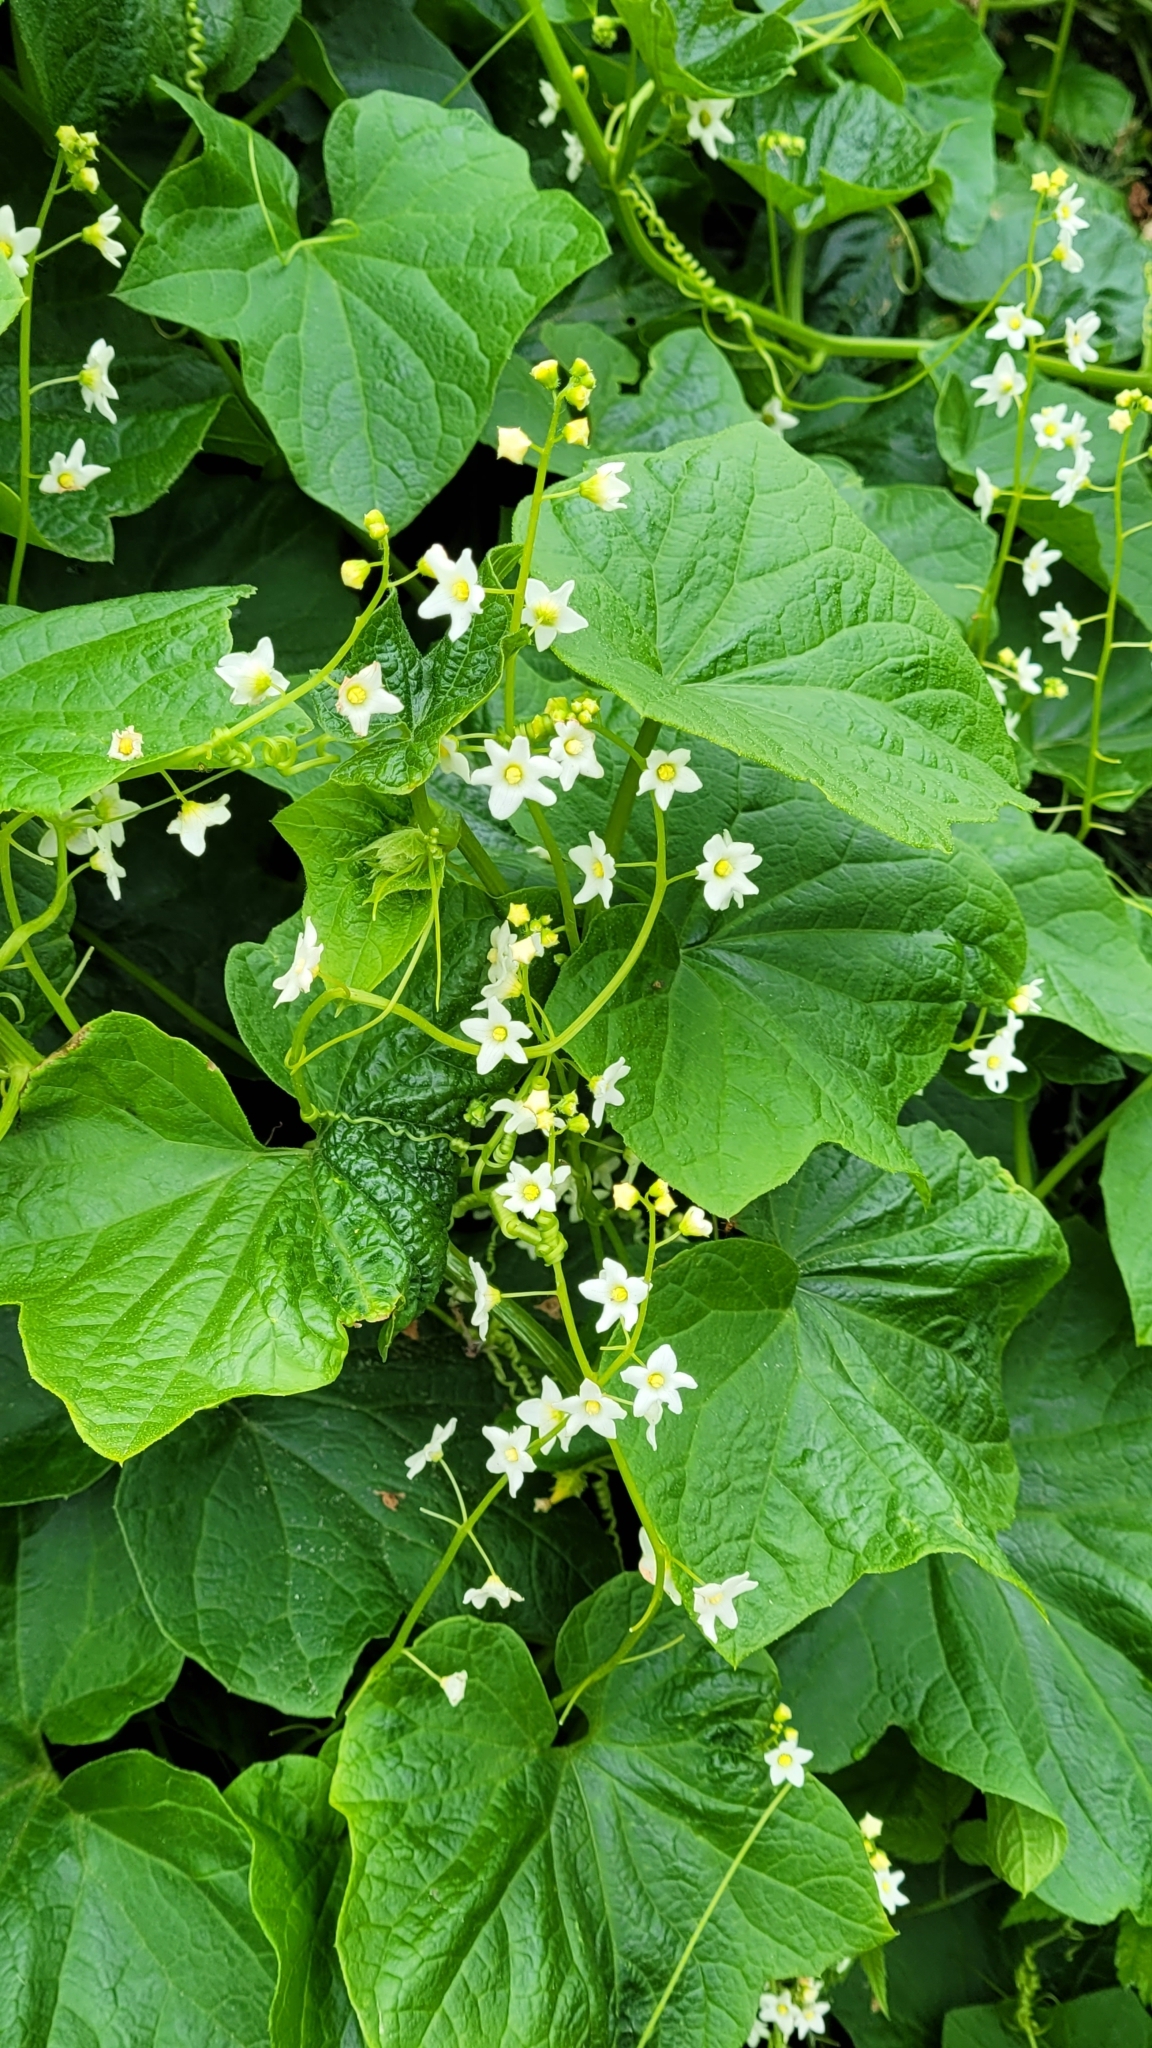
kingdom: Plantae
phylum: Tracheophyta
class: Magnoliopsida
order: Cucurbitales
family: Cucurbitaceae
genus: Marah
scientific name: Marah oregana
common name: Coastal manroot
